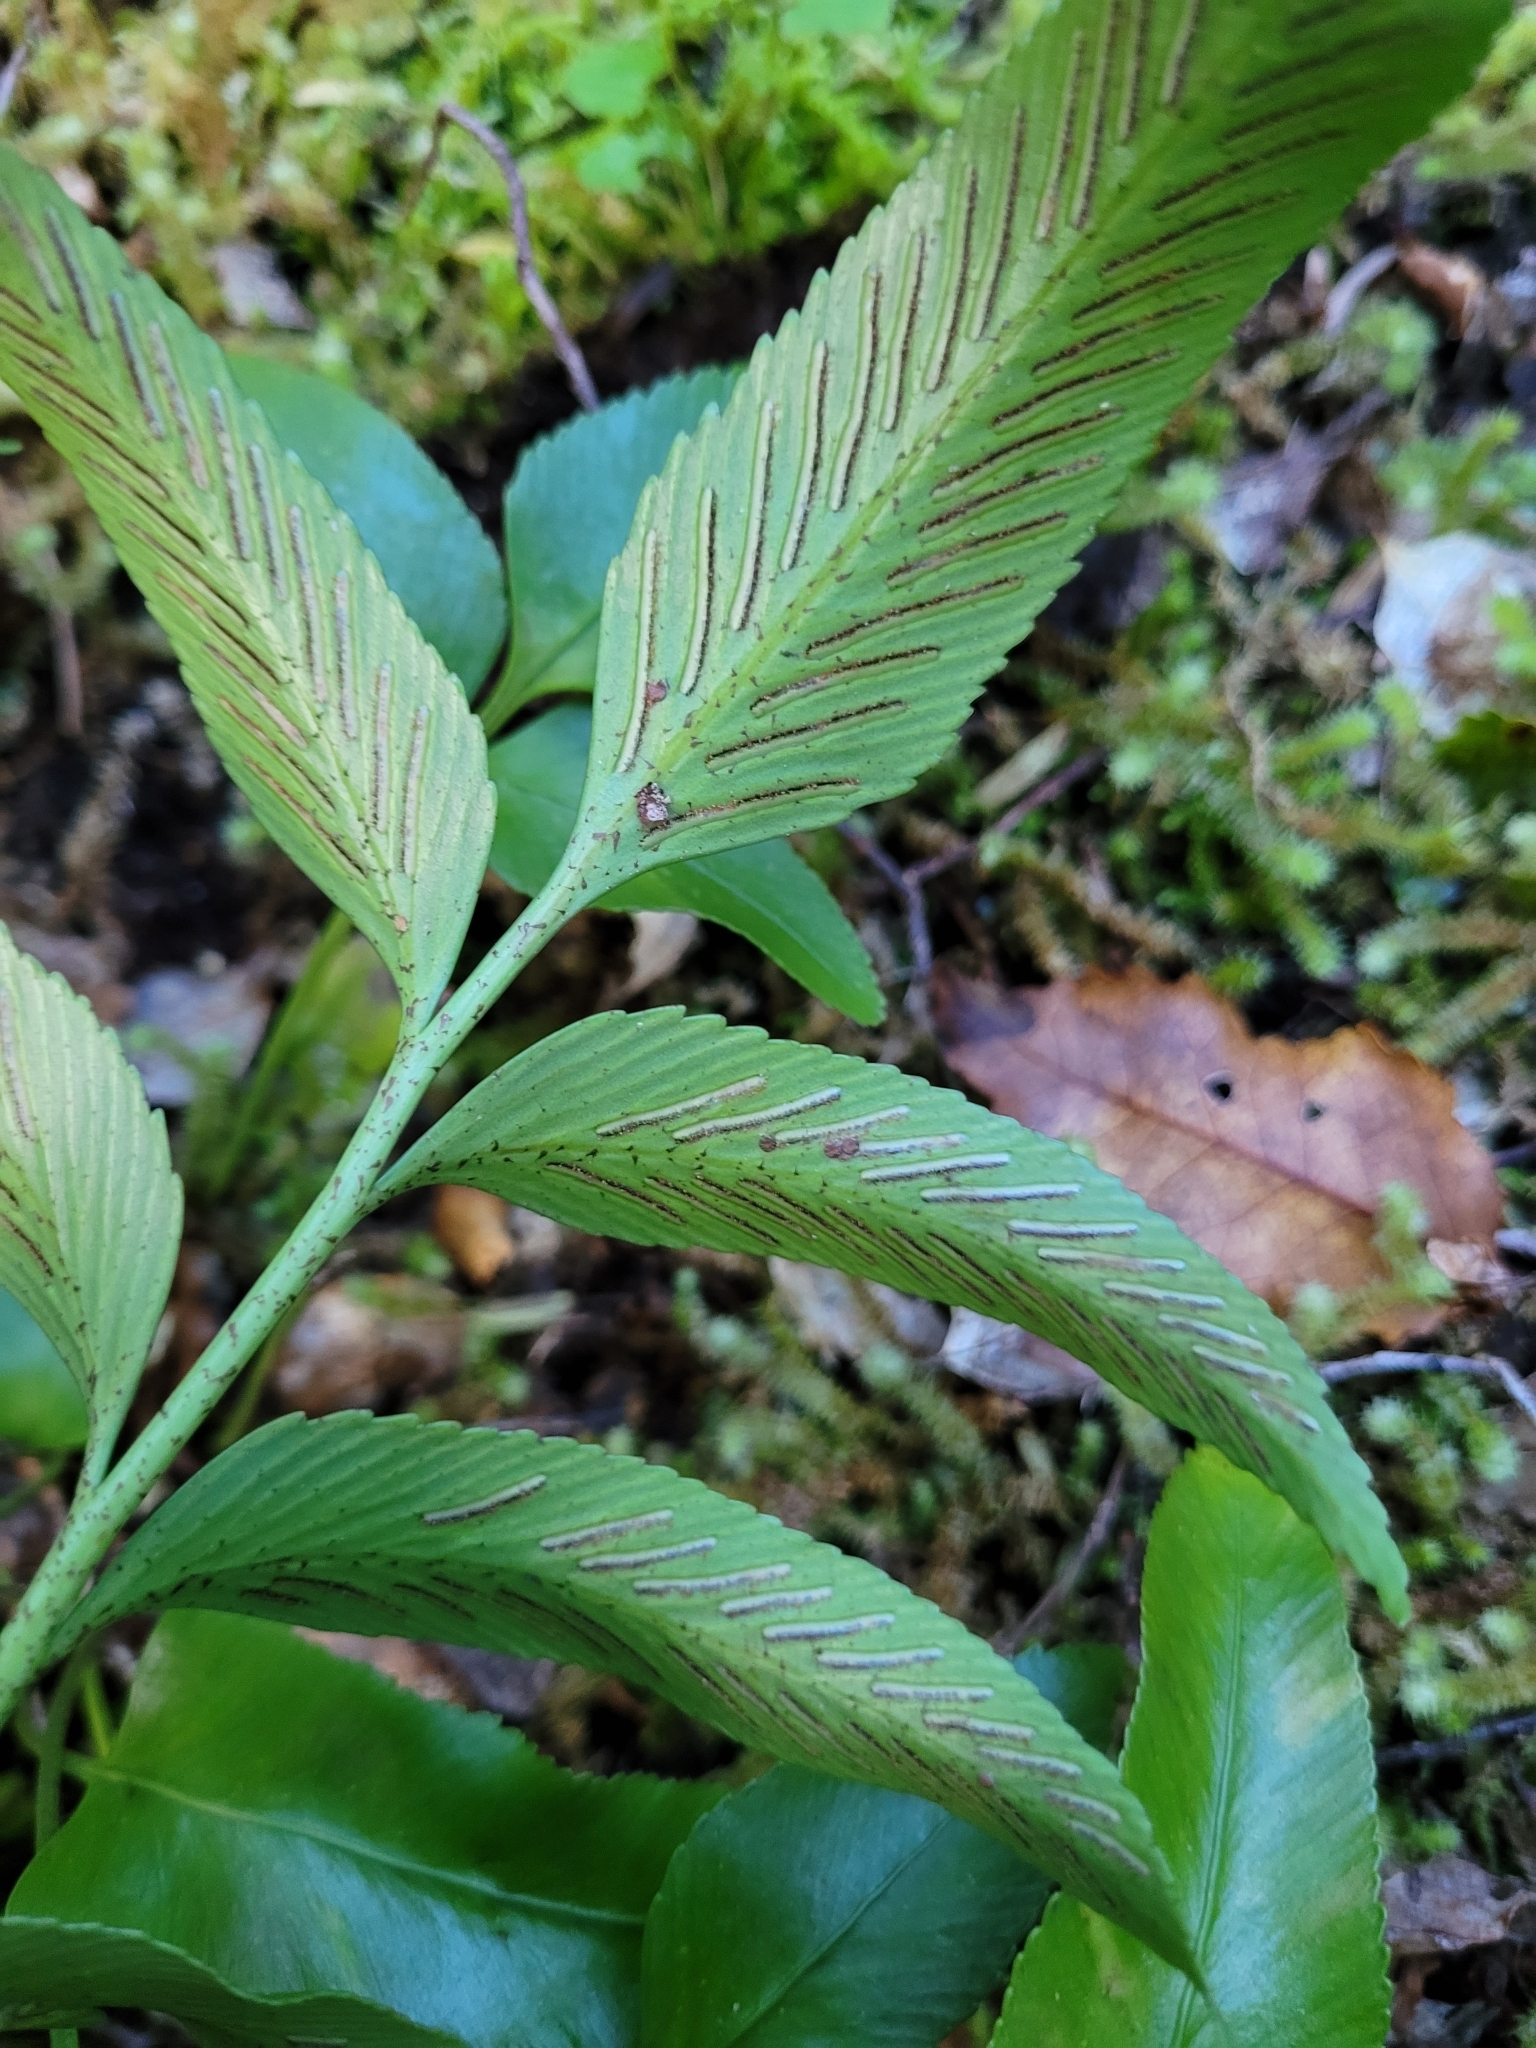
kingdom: Plantae
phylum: Tracheophyta
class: Polypodiopsida
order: Polypodiales
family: Aspleniaceae
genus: Asplenium
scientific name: Asplenium oblongifolium
